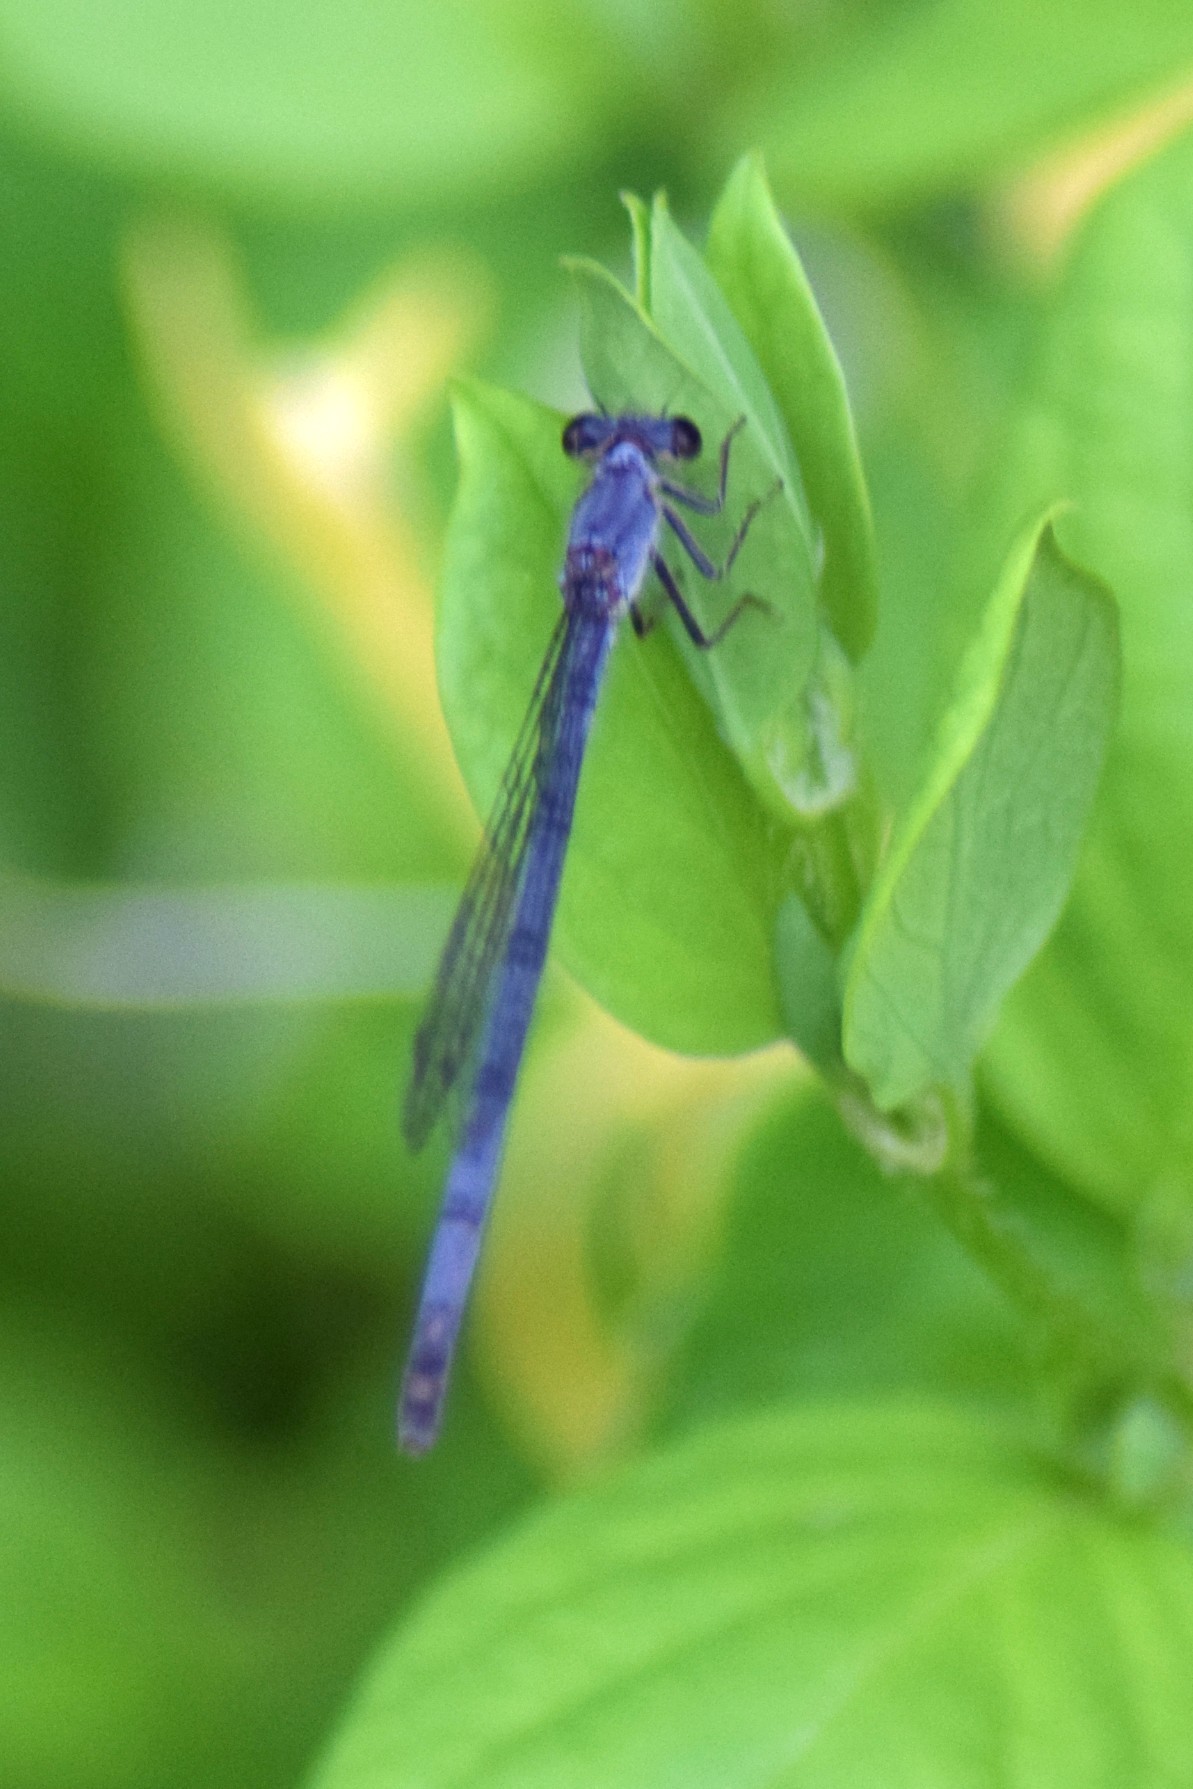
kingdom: Animalia
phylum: Arthropoda
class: Insecta
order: Odonata
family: Coenagrionidae
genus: Ischnura
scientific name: Ischnura posita
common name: Fragile forktail
